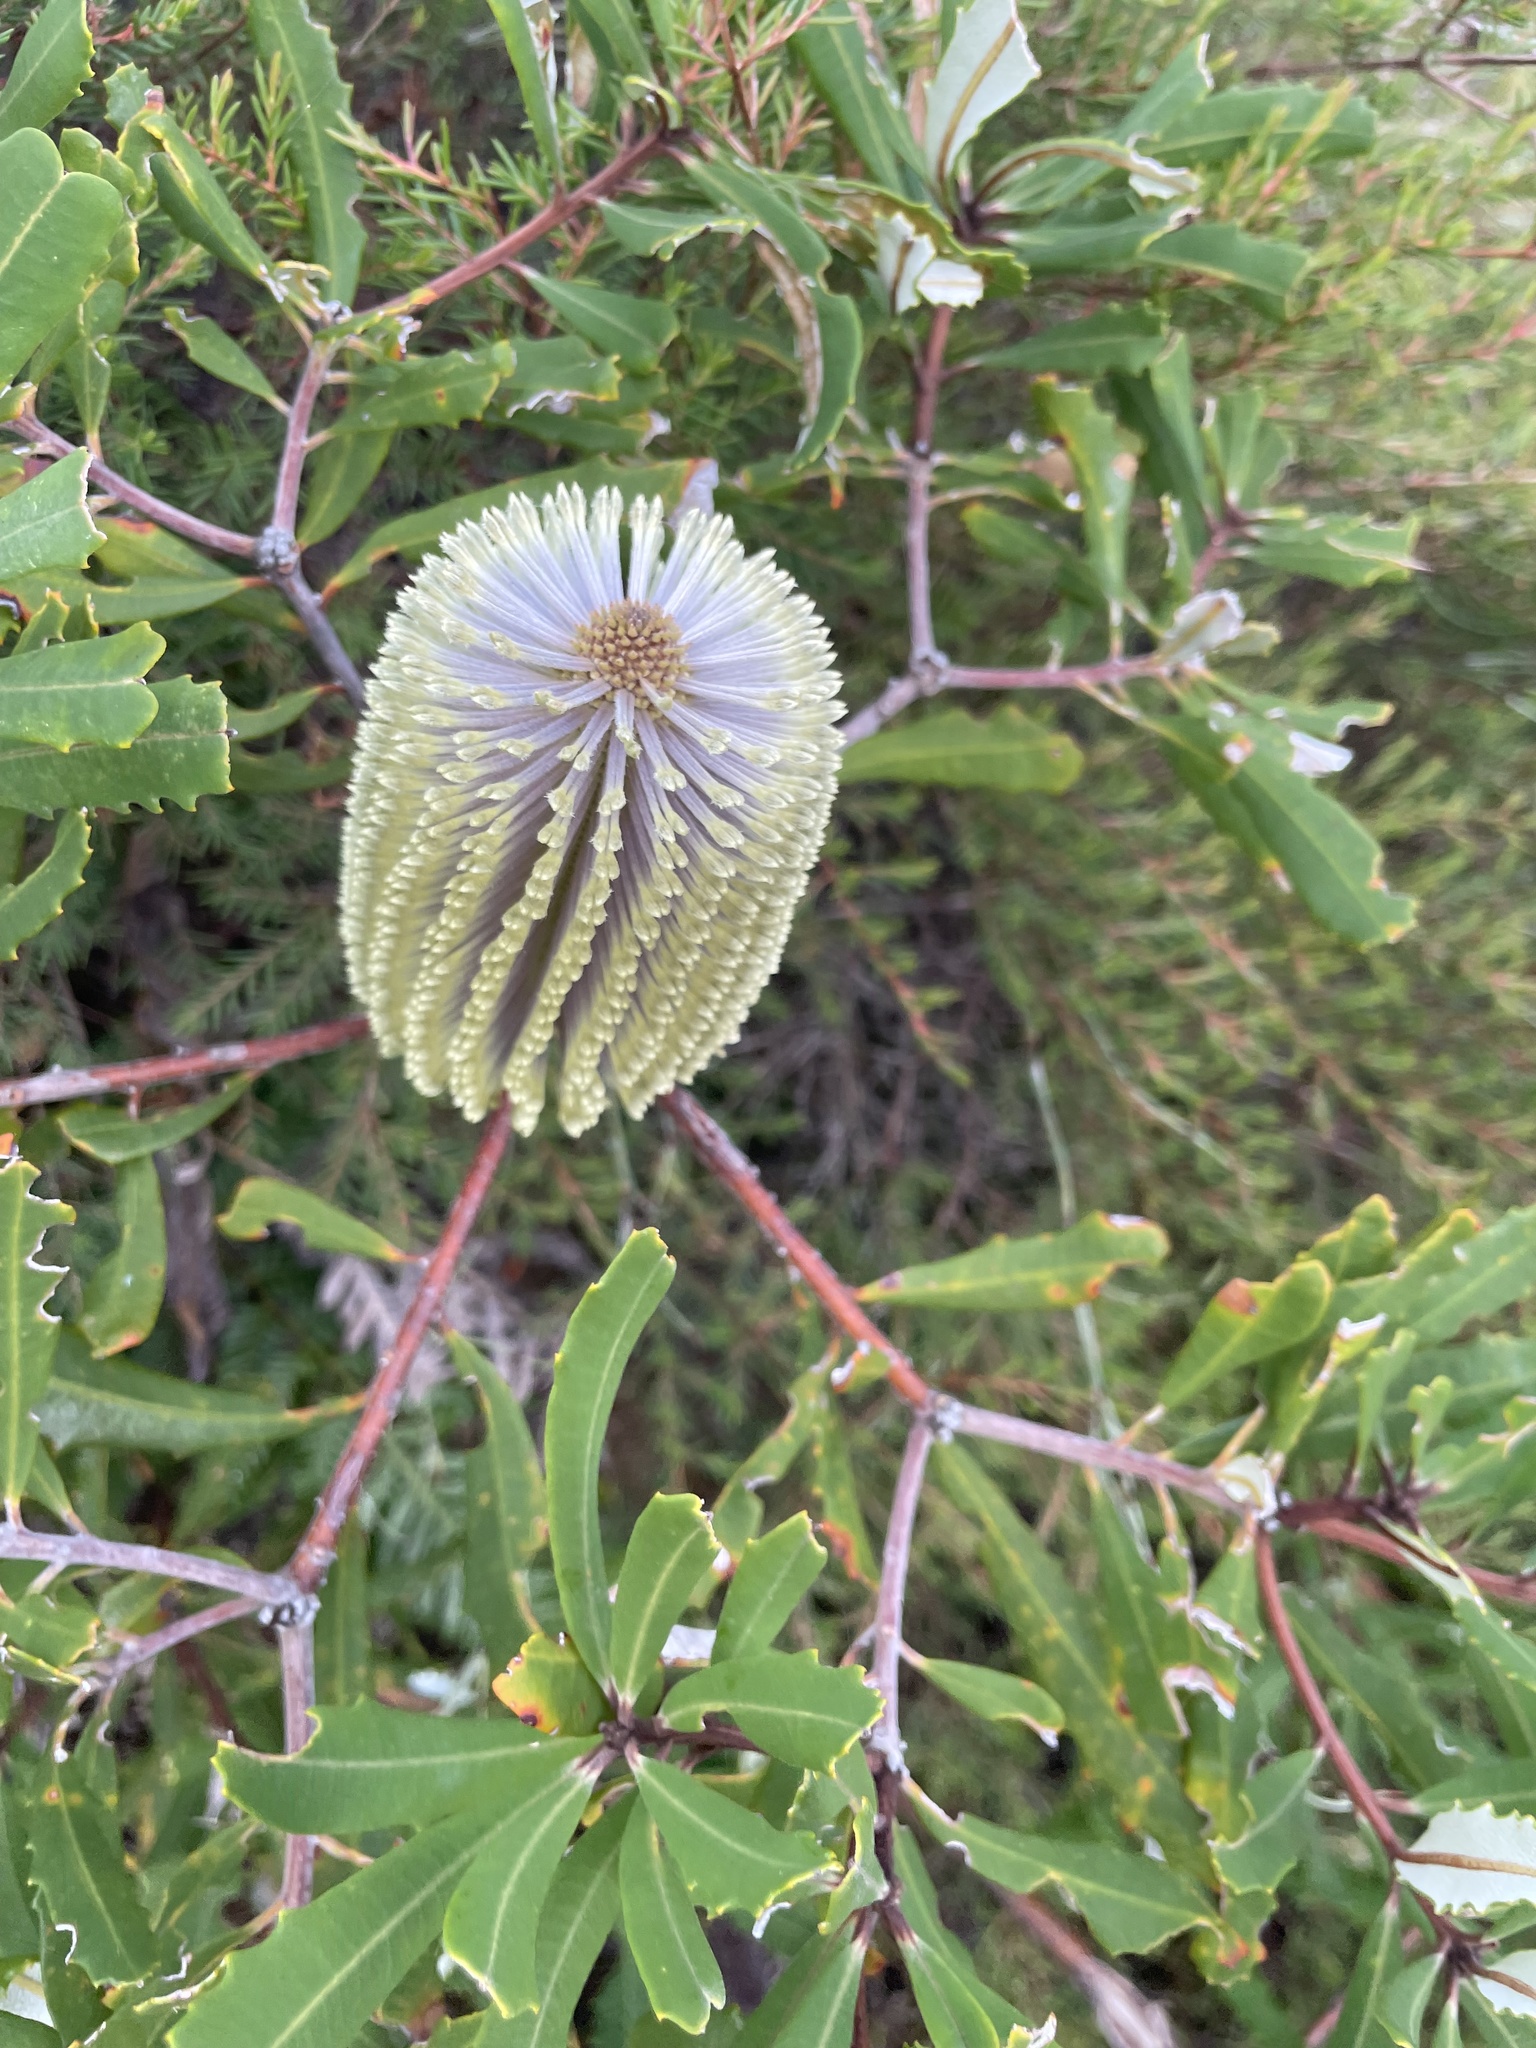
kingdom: Plantae
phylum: Tracheophyta
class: Magnoliopsida
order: Proteales
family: Proteaceae
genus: Banksia
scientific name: Banksia oblongifolia
